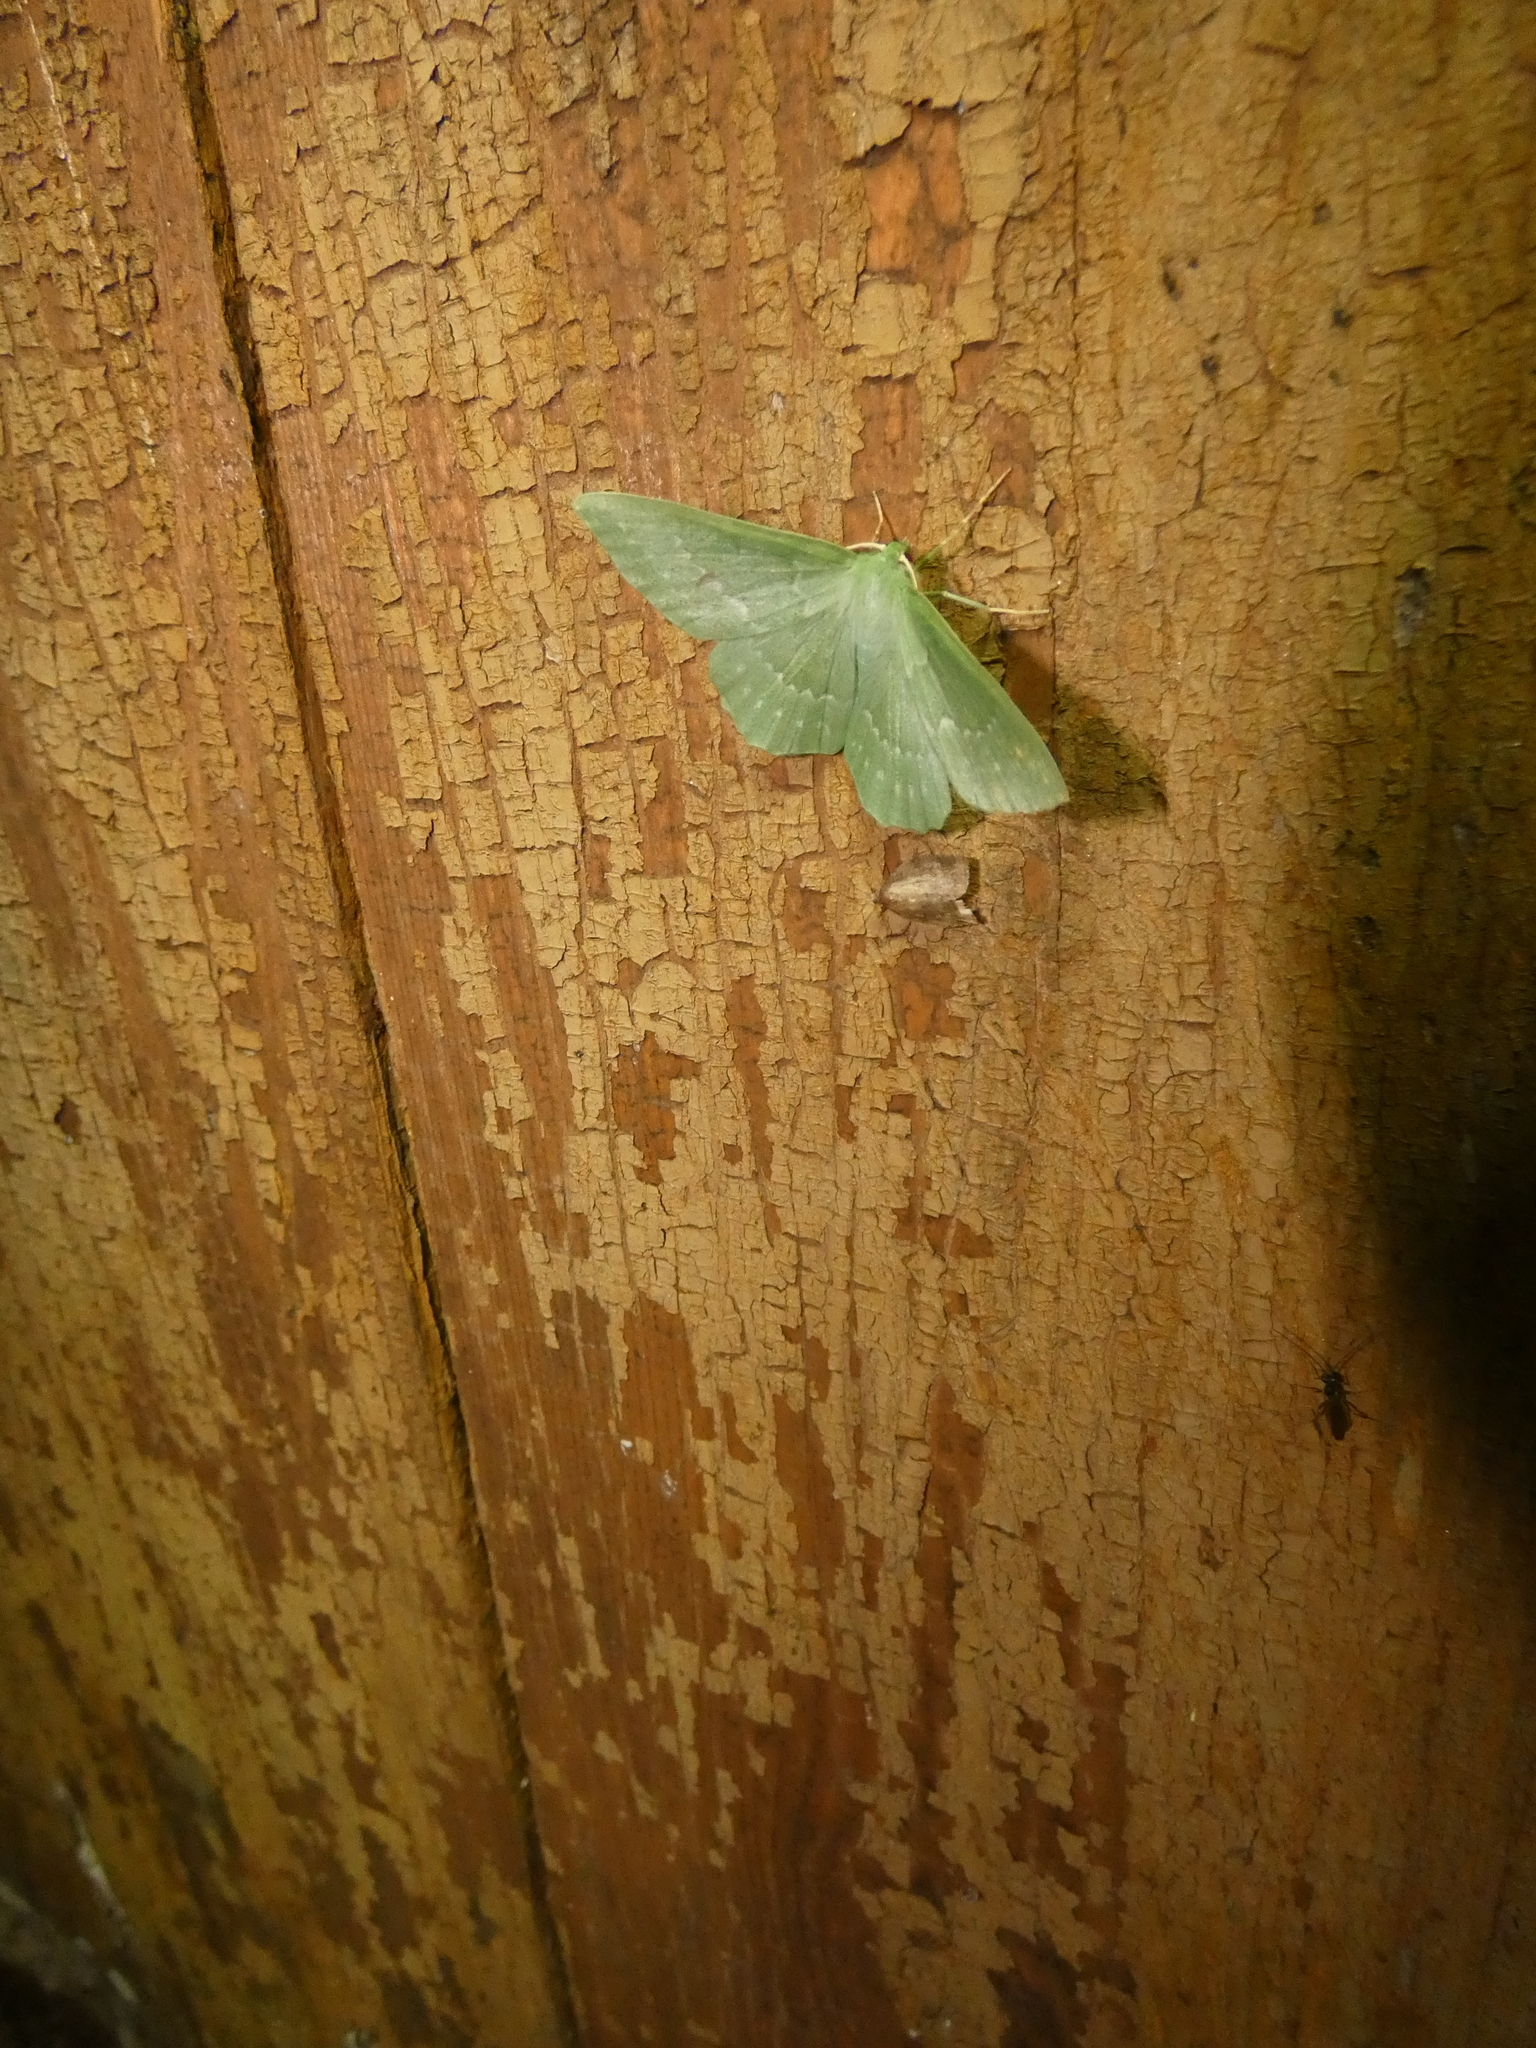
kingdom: Animalia
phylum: Arthropoda
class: Insecta
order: Lepidoptera
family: Geometridae
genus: Geometra
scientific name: Geometra papilionaria
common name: Large emerald
